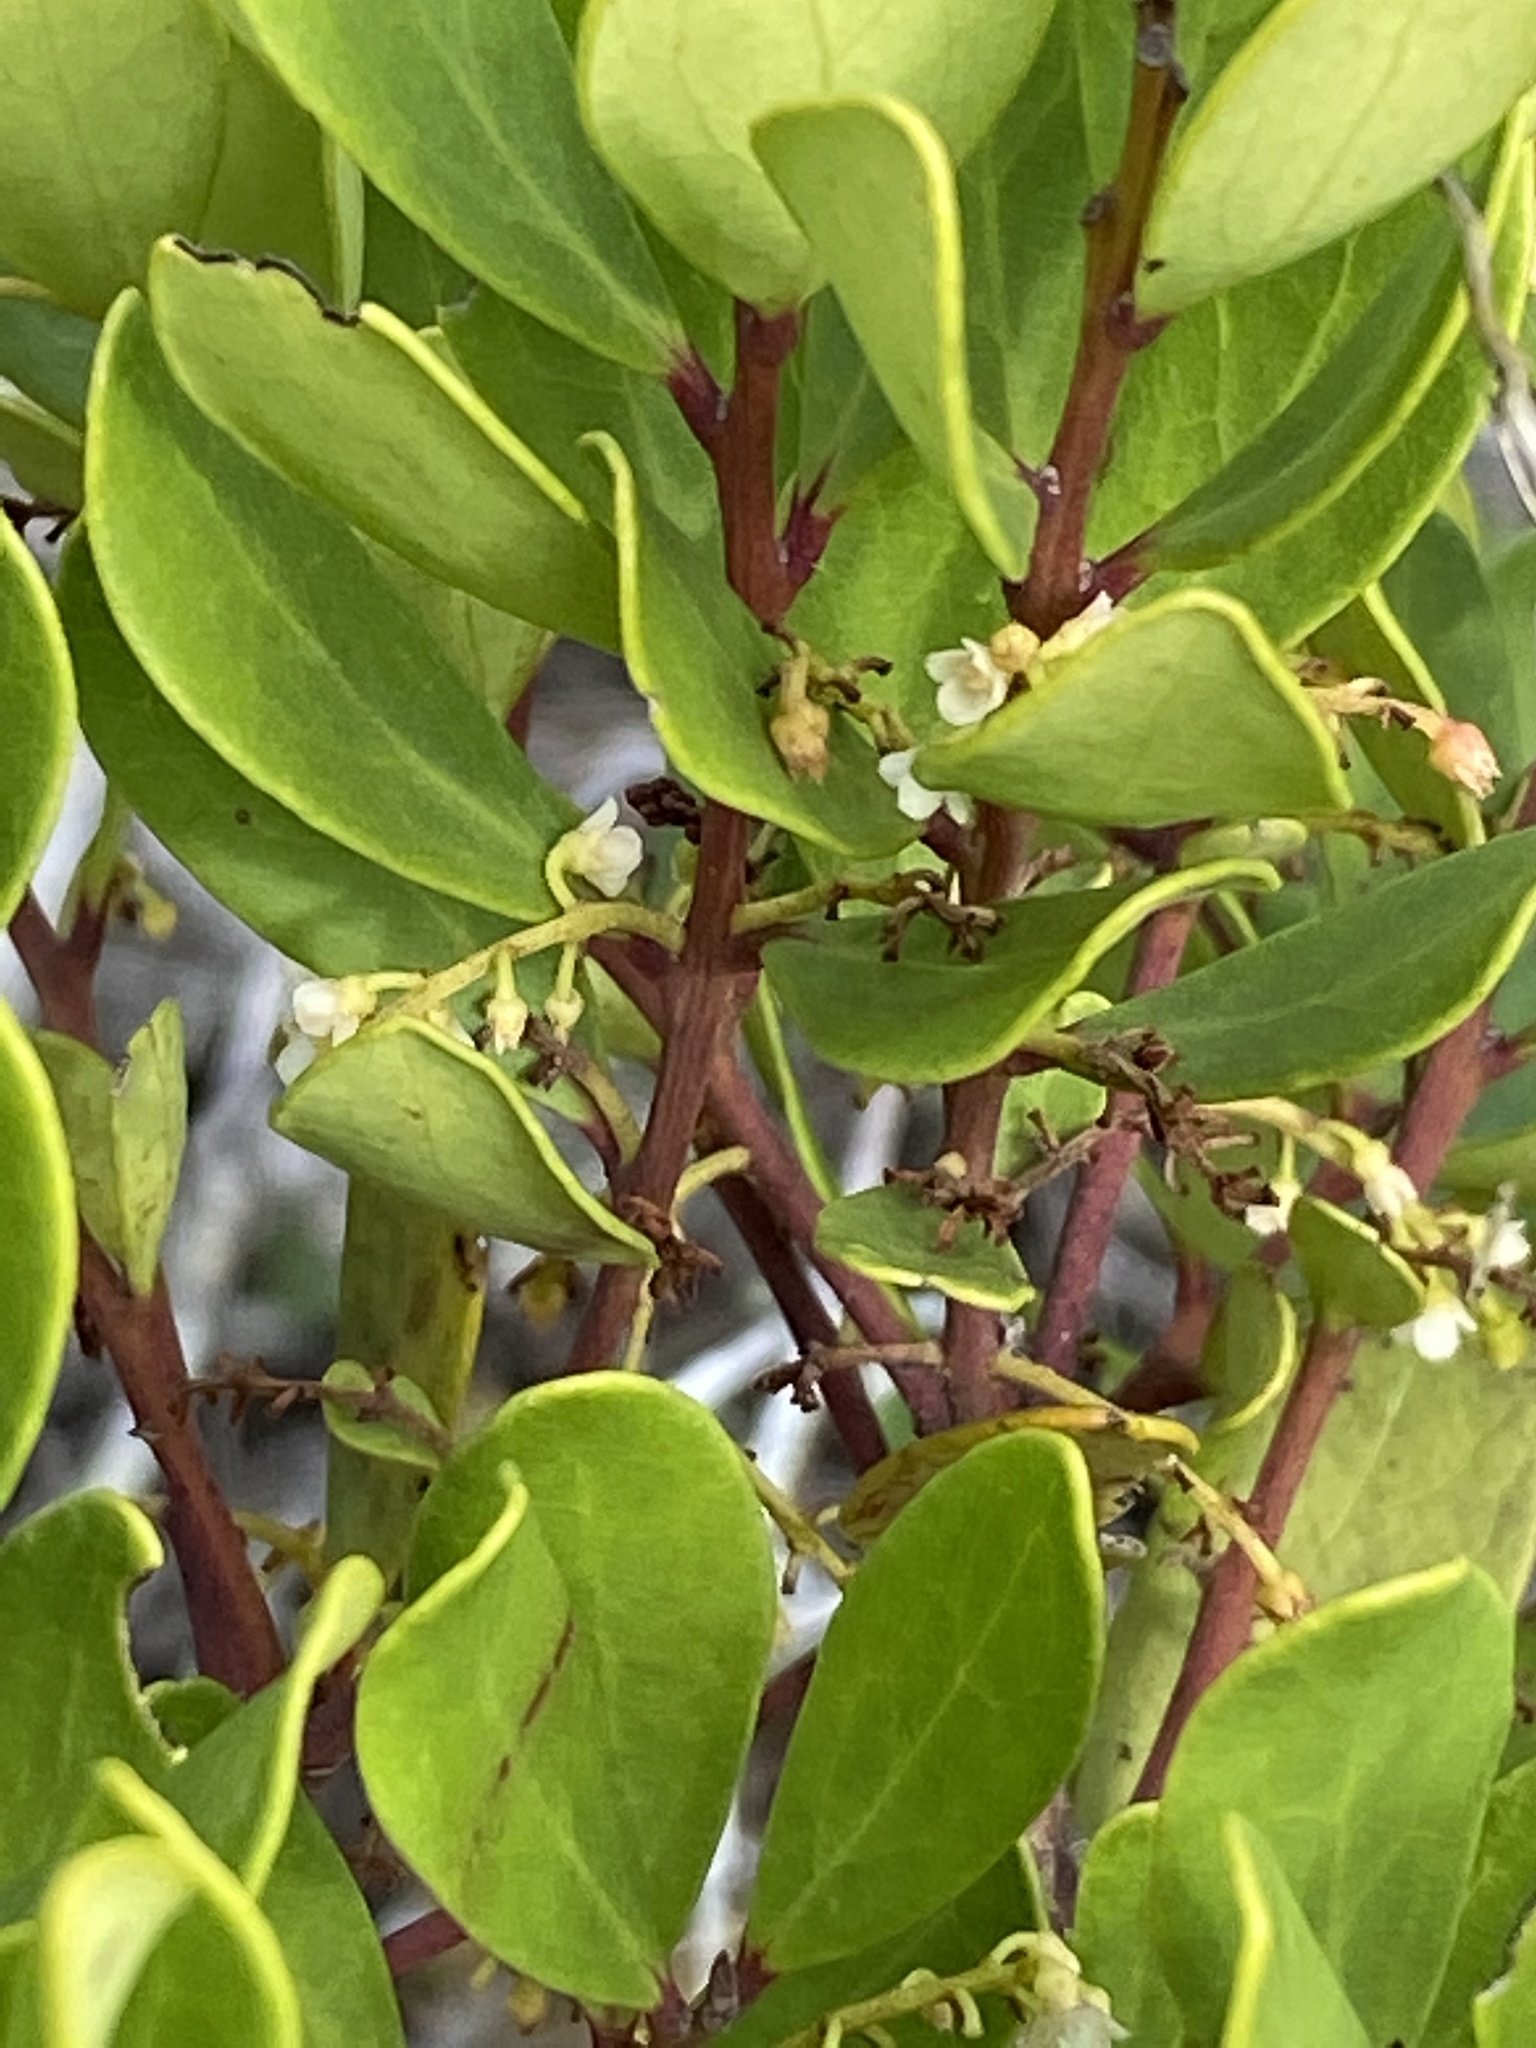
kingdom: Plantae
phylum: Tracheophyta
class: Magnoliopsida
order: Ericales
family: Ebenaceae
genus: Euclea
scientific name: Euclea racemosa
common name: Dune guarri
